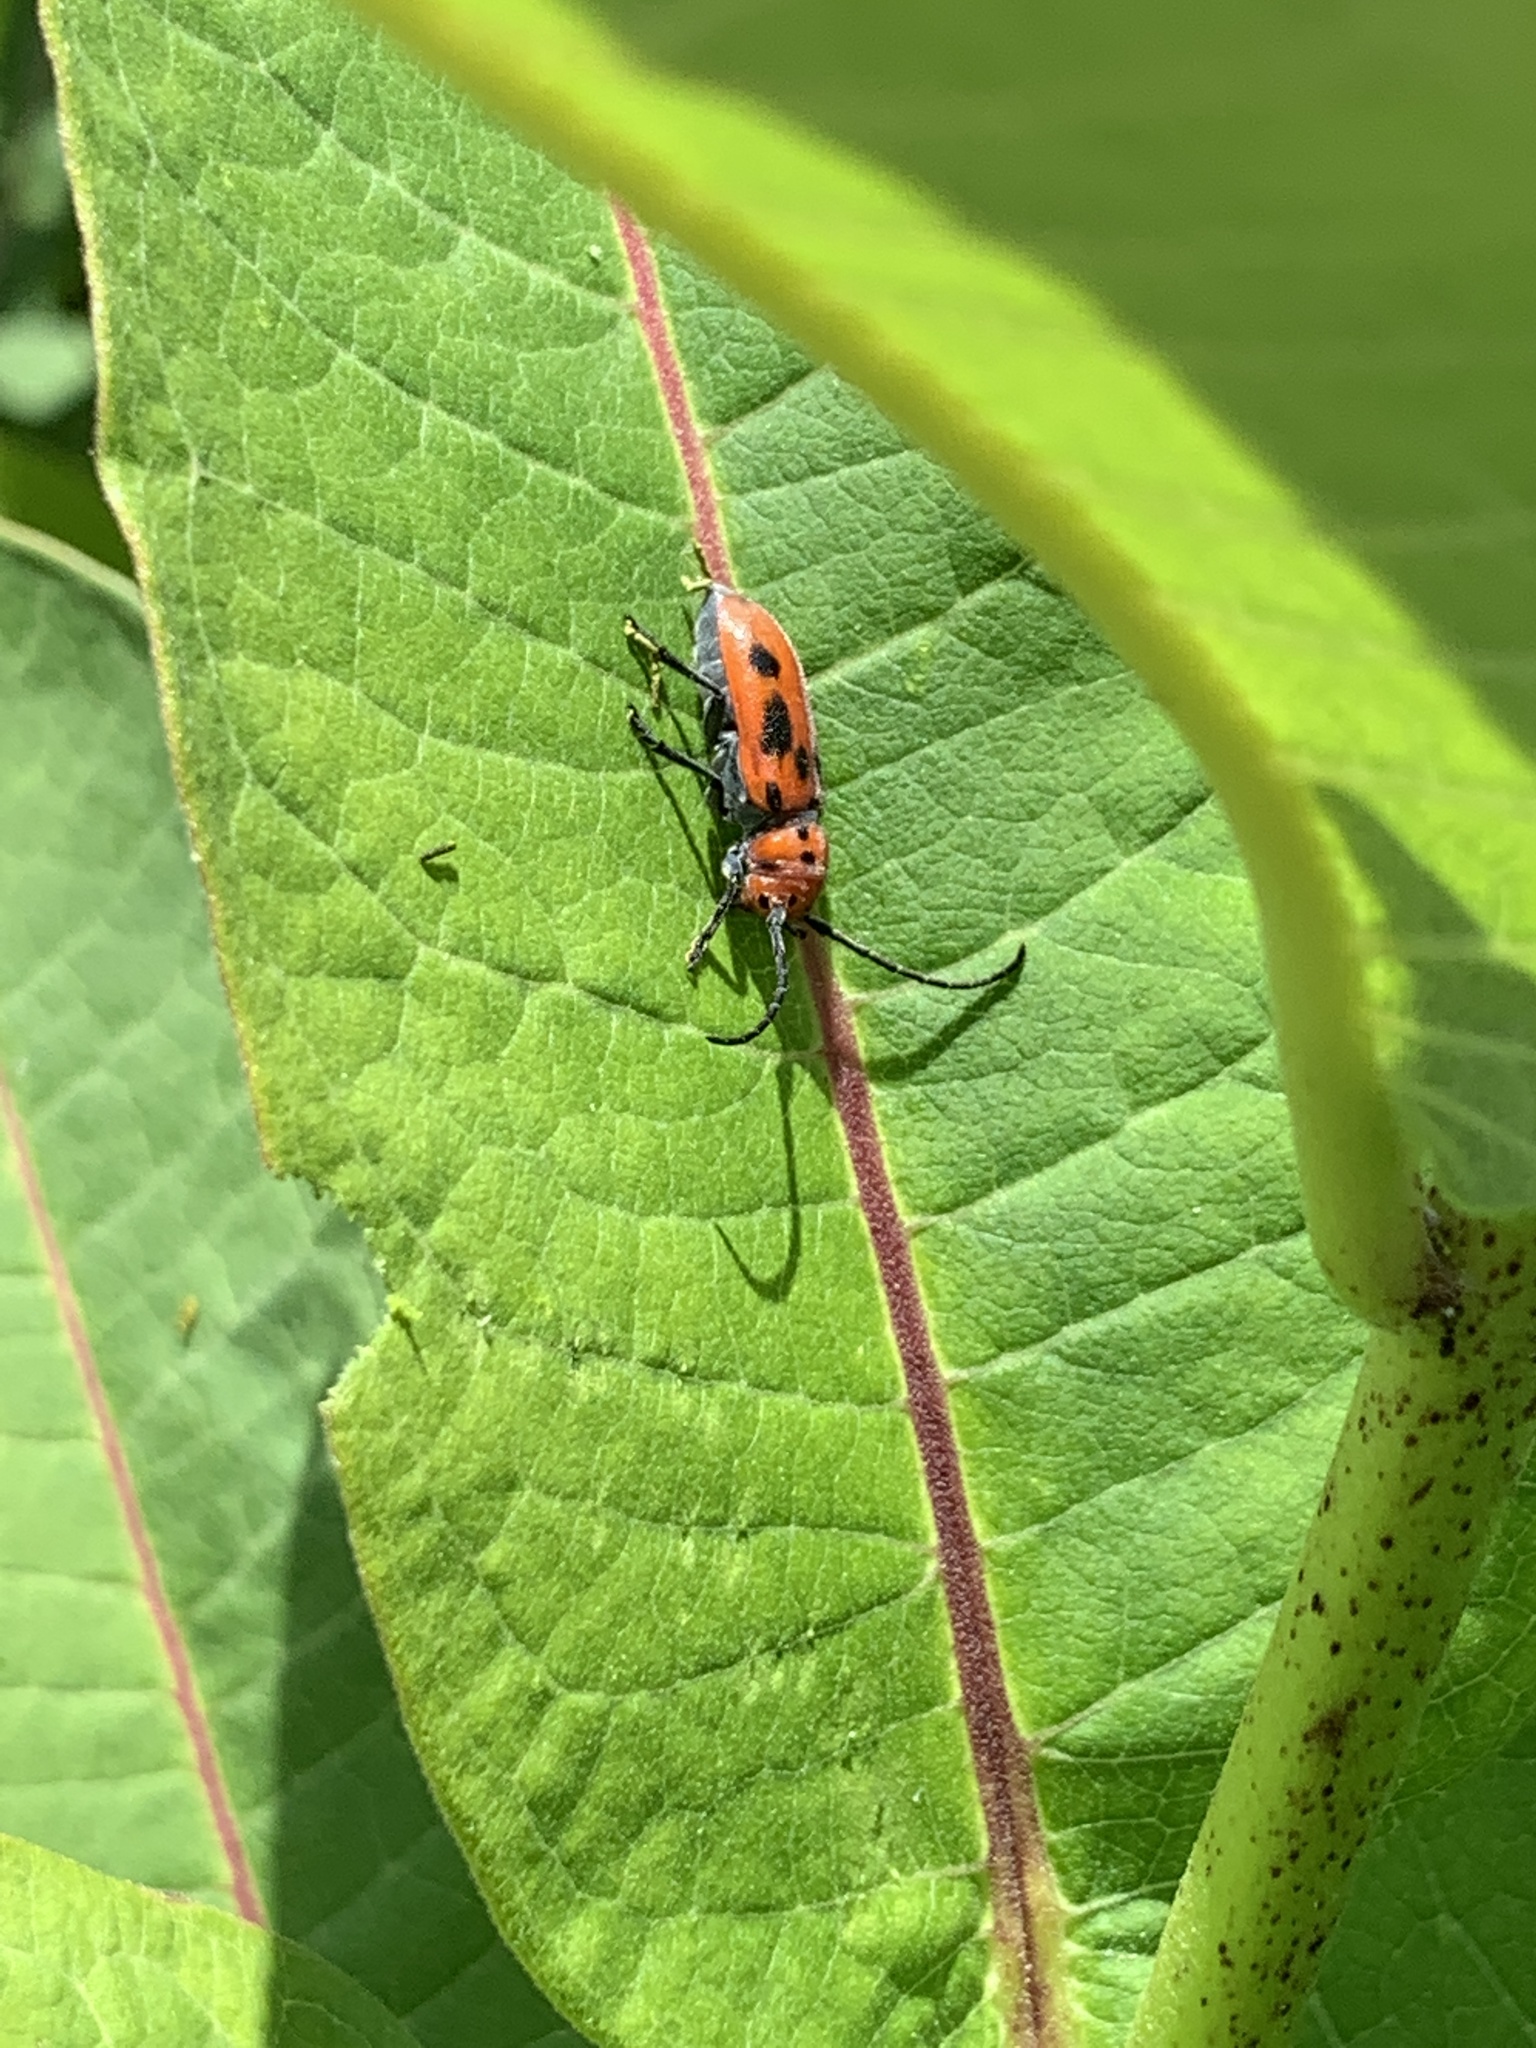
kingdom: Animalia
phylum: Arthropoda
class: Insecta
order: Coleoptera
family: Cerambycidae
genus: Tetraopes
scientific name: Tetraopes tetrophthalmus
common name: Red milkweed beetle
